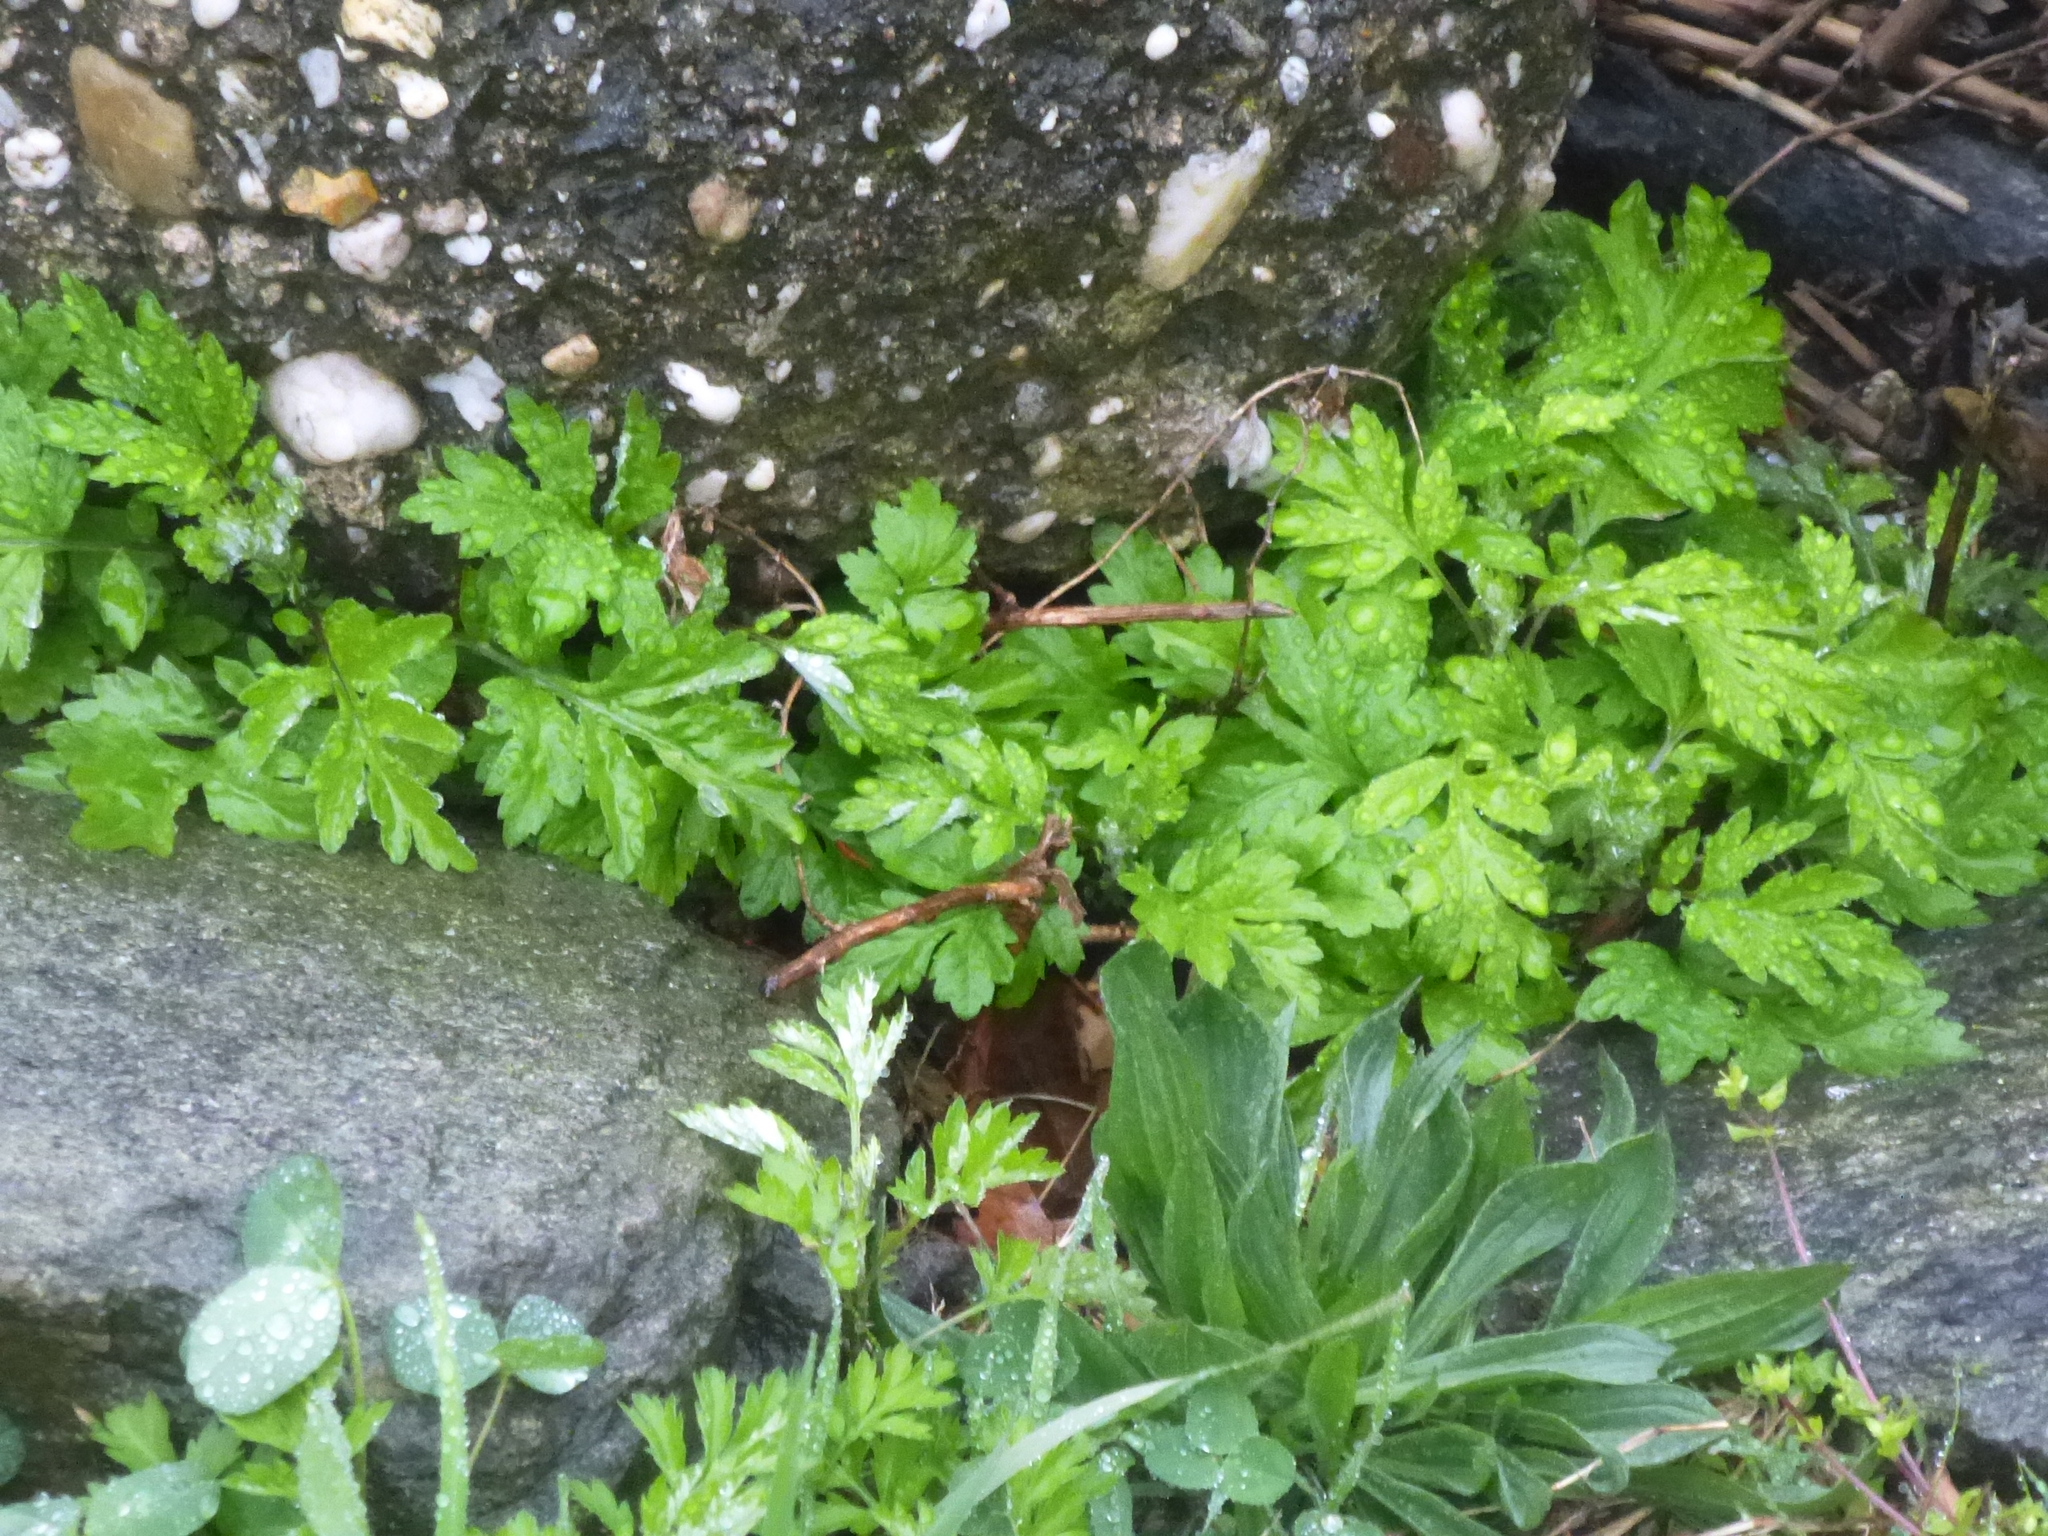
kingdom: Plantae
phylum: Tracheophyta
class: Magnoliopsida
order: Asterales
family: Asteraceae
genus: Artemisia
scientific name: Artemisia vulgaris
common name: Mugwort
